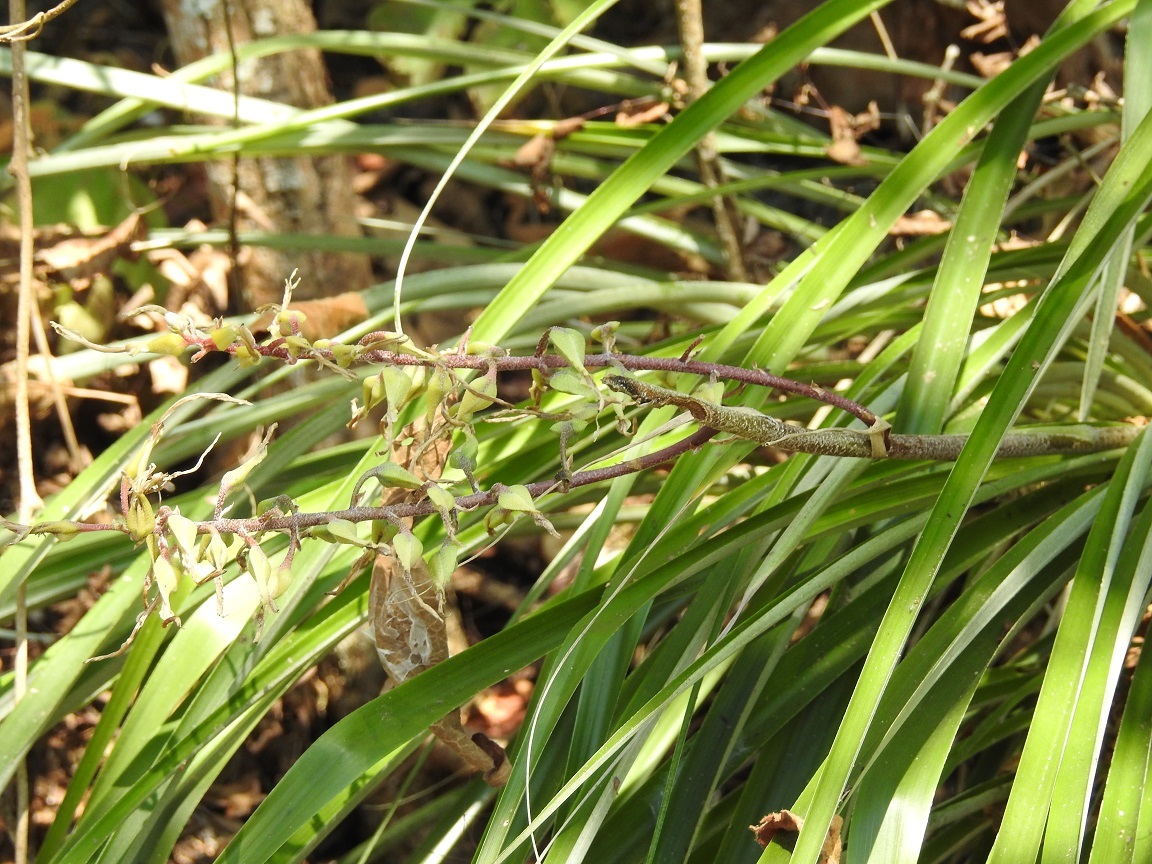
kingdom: Plantae
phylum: Tracheophyta
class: Liliopsida
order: Poales
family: Bromeliaceae
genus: Pitcairnia
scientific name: Pitcairnia breedlovei
